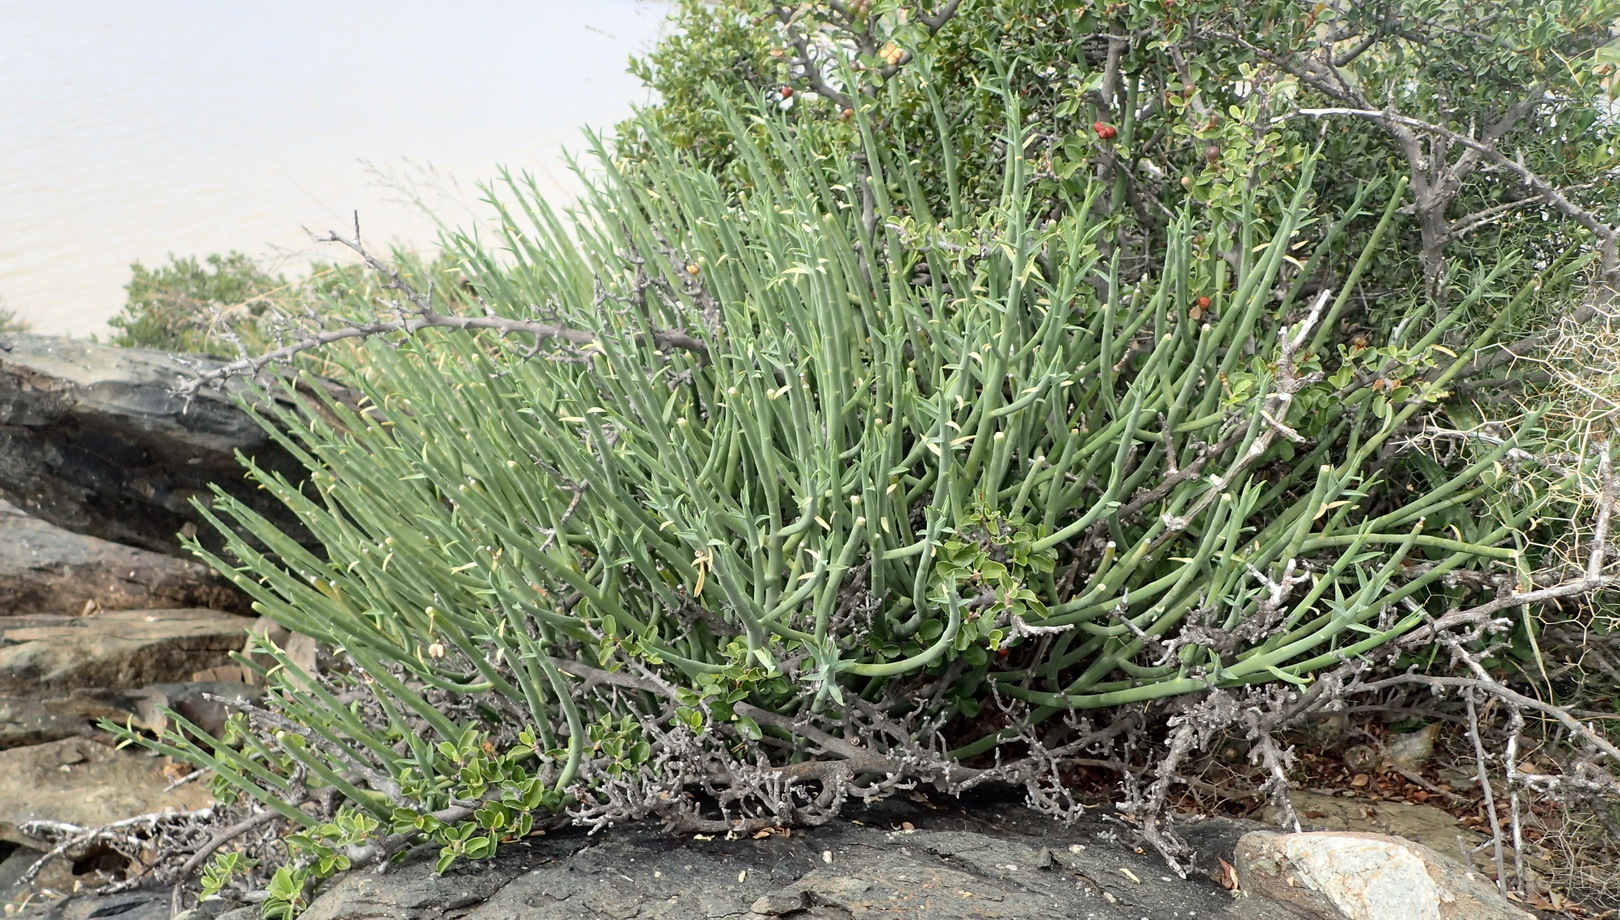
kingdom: Plantae
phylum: Tracheophyta
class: Magnoliopsida
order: Malpighiales
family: Euphorbiaceae
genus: Euphorbia
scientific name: Euphorbia mauritanica
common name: Jackal's-food
